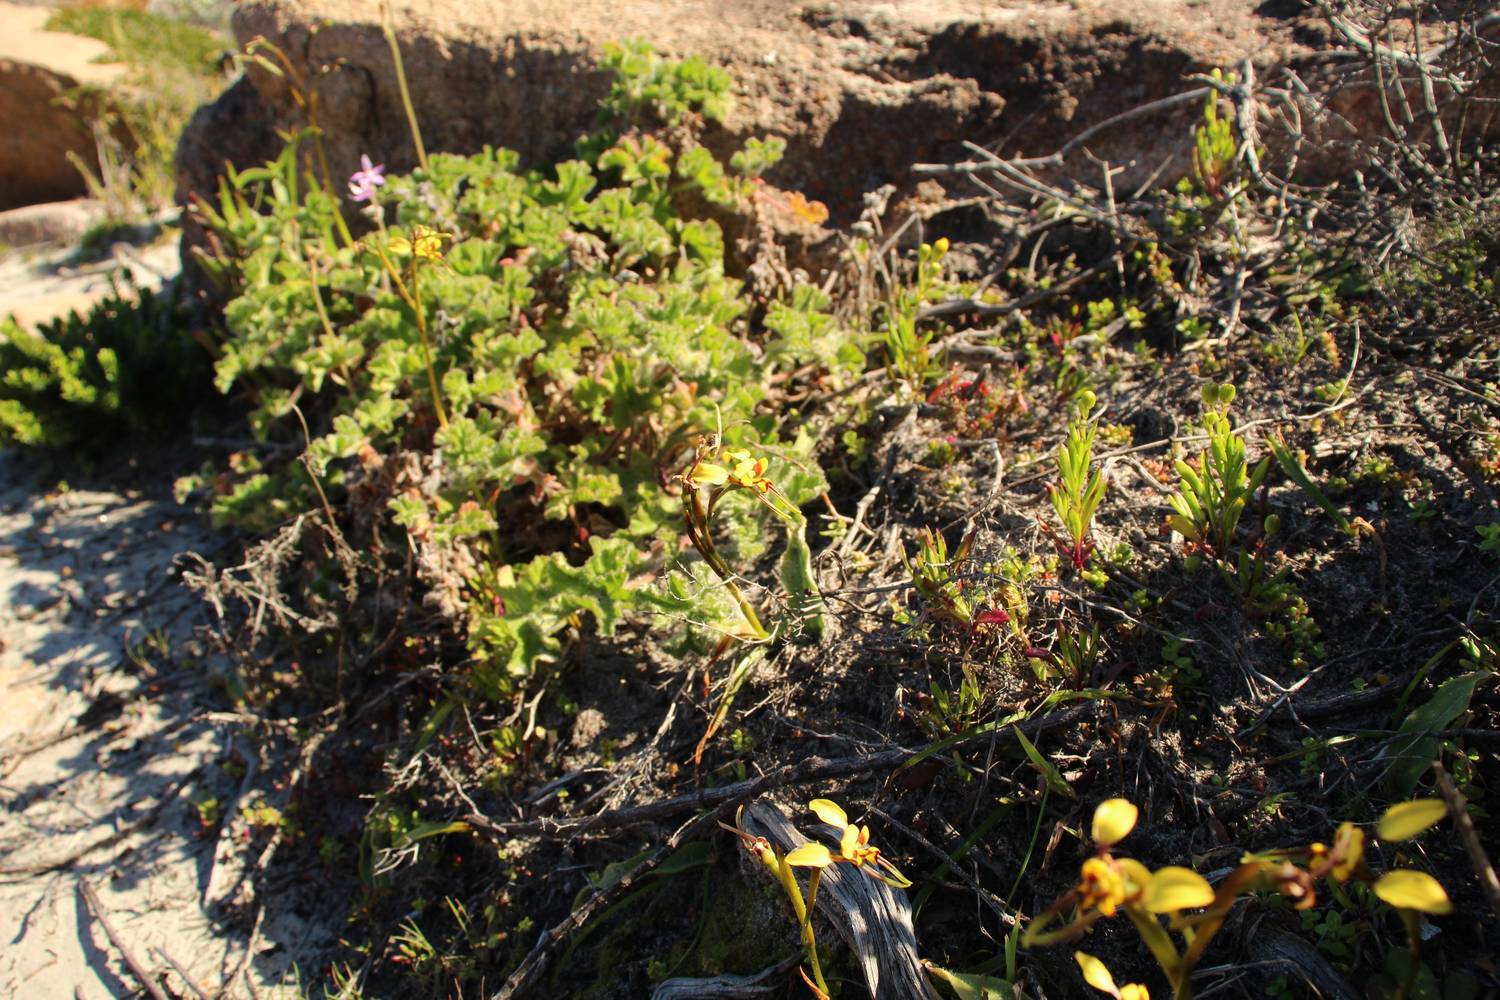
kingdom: Plantae
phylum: Tracheophyta
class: Liliopsida
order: Asparagales
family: Orchidaceae
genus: Diuris
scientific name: Diuris conspicillata
